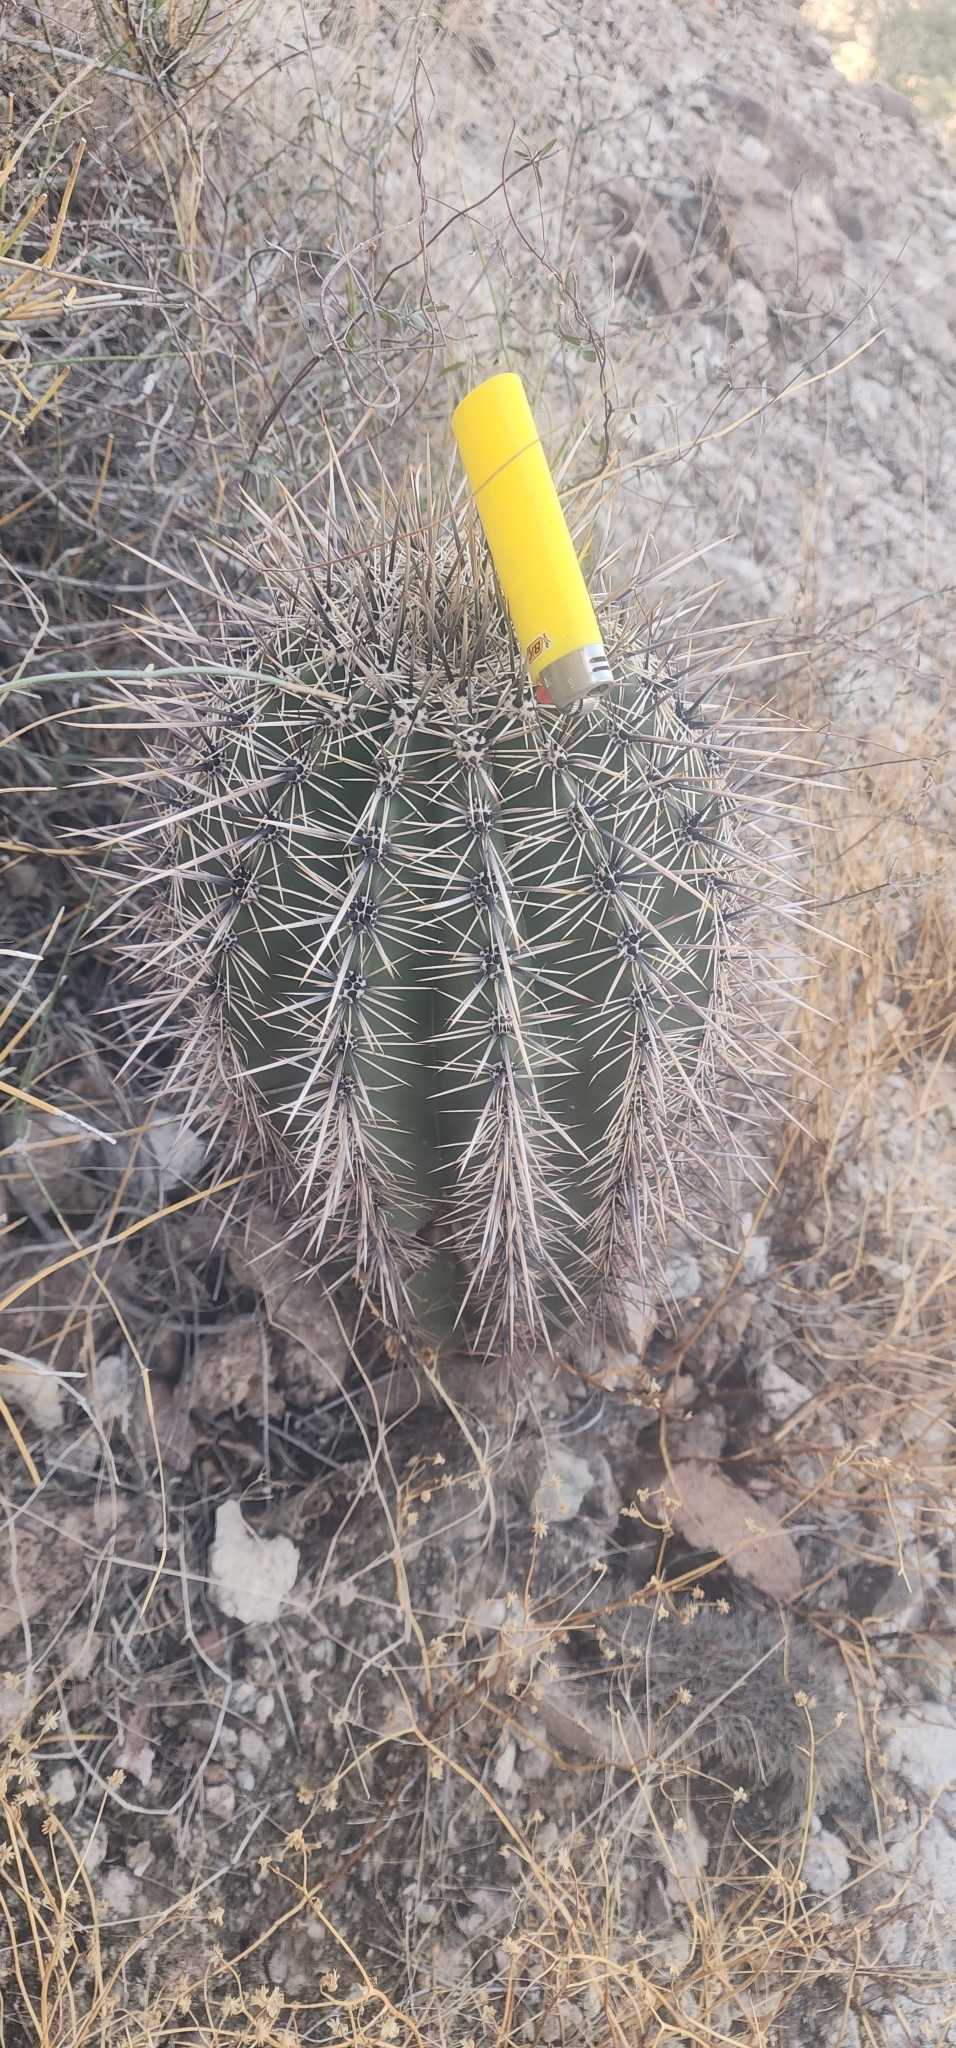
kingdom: Plantae
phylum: Tracheophyta
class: Magnoliopsida
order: Caryophyllales
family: Cactaceae
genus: Carnegiea
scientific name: Carnegiea gigantea
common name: Saguaro
